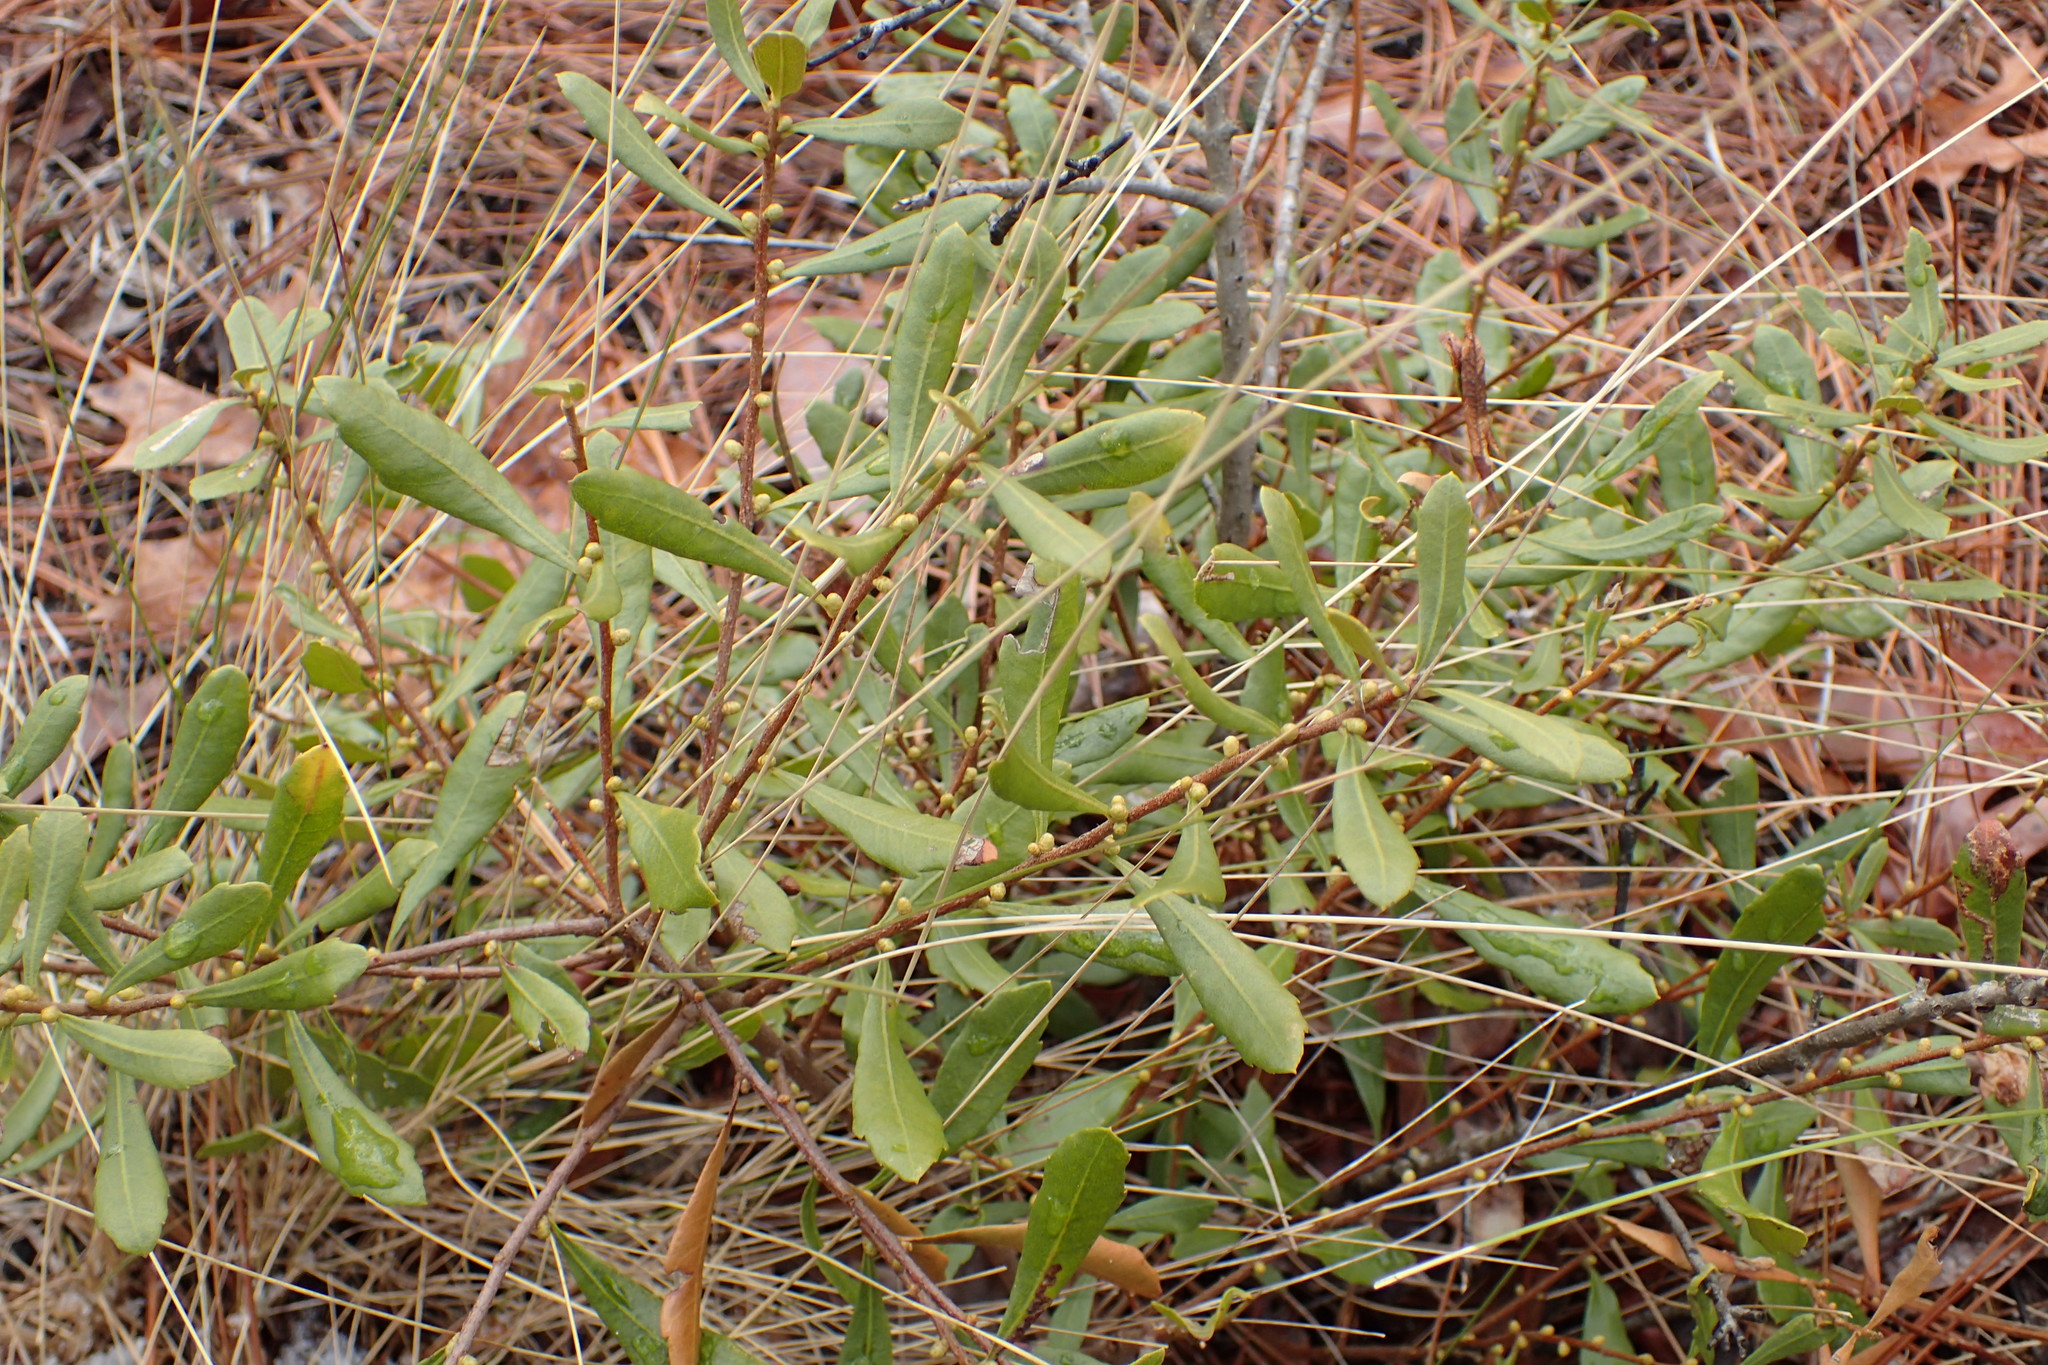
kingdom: Plantae
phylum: Tracheophyta
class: Magnoliopsida
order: Fagales
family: Myricaceae
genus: Morella
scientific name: Morella cerifera
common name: Wax myrtle
